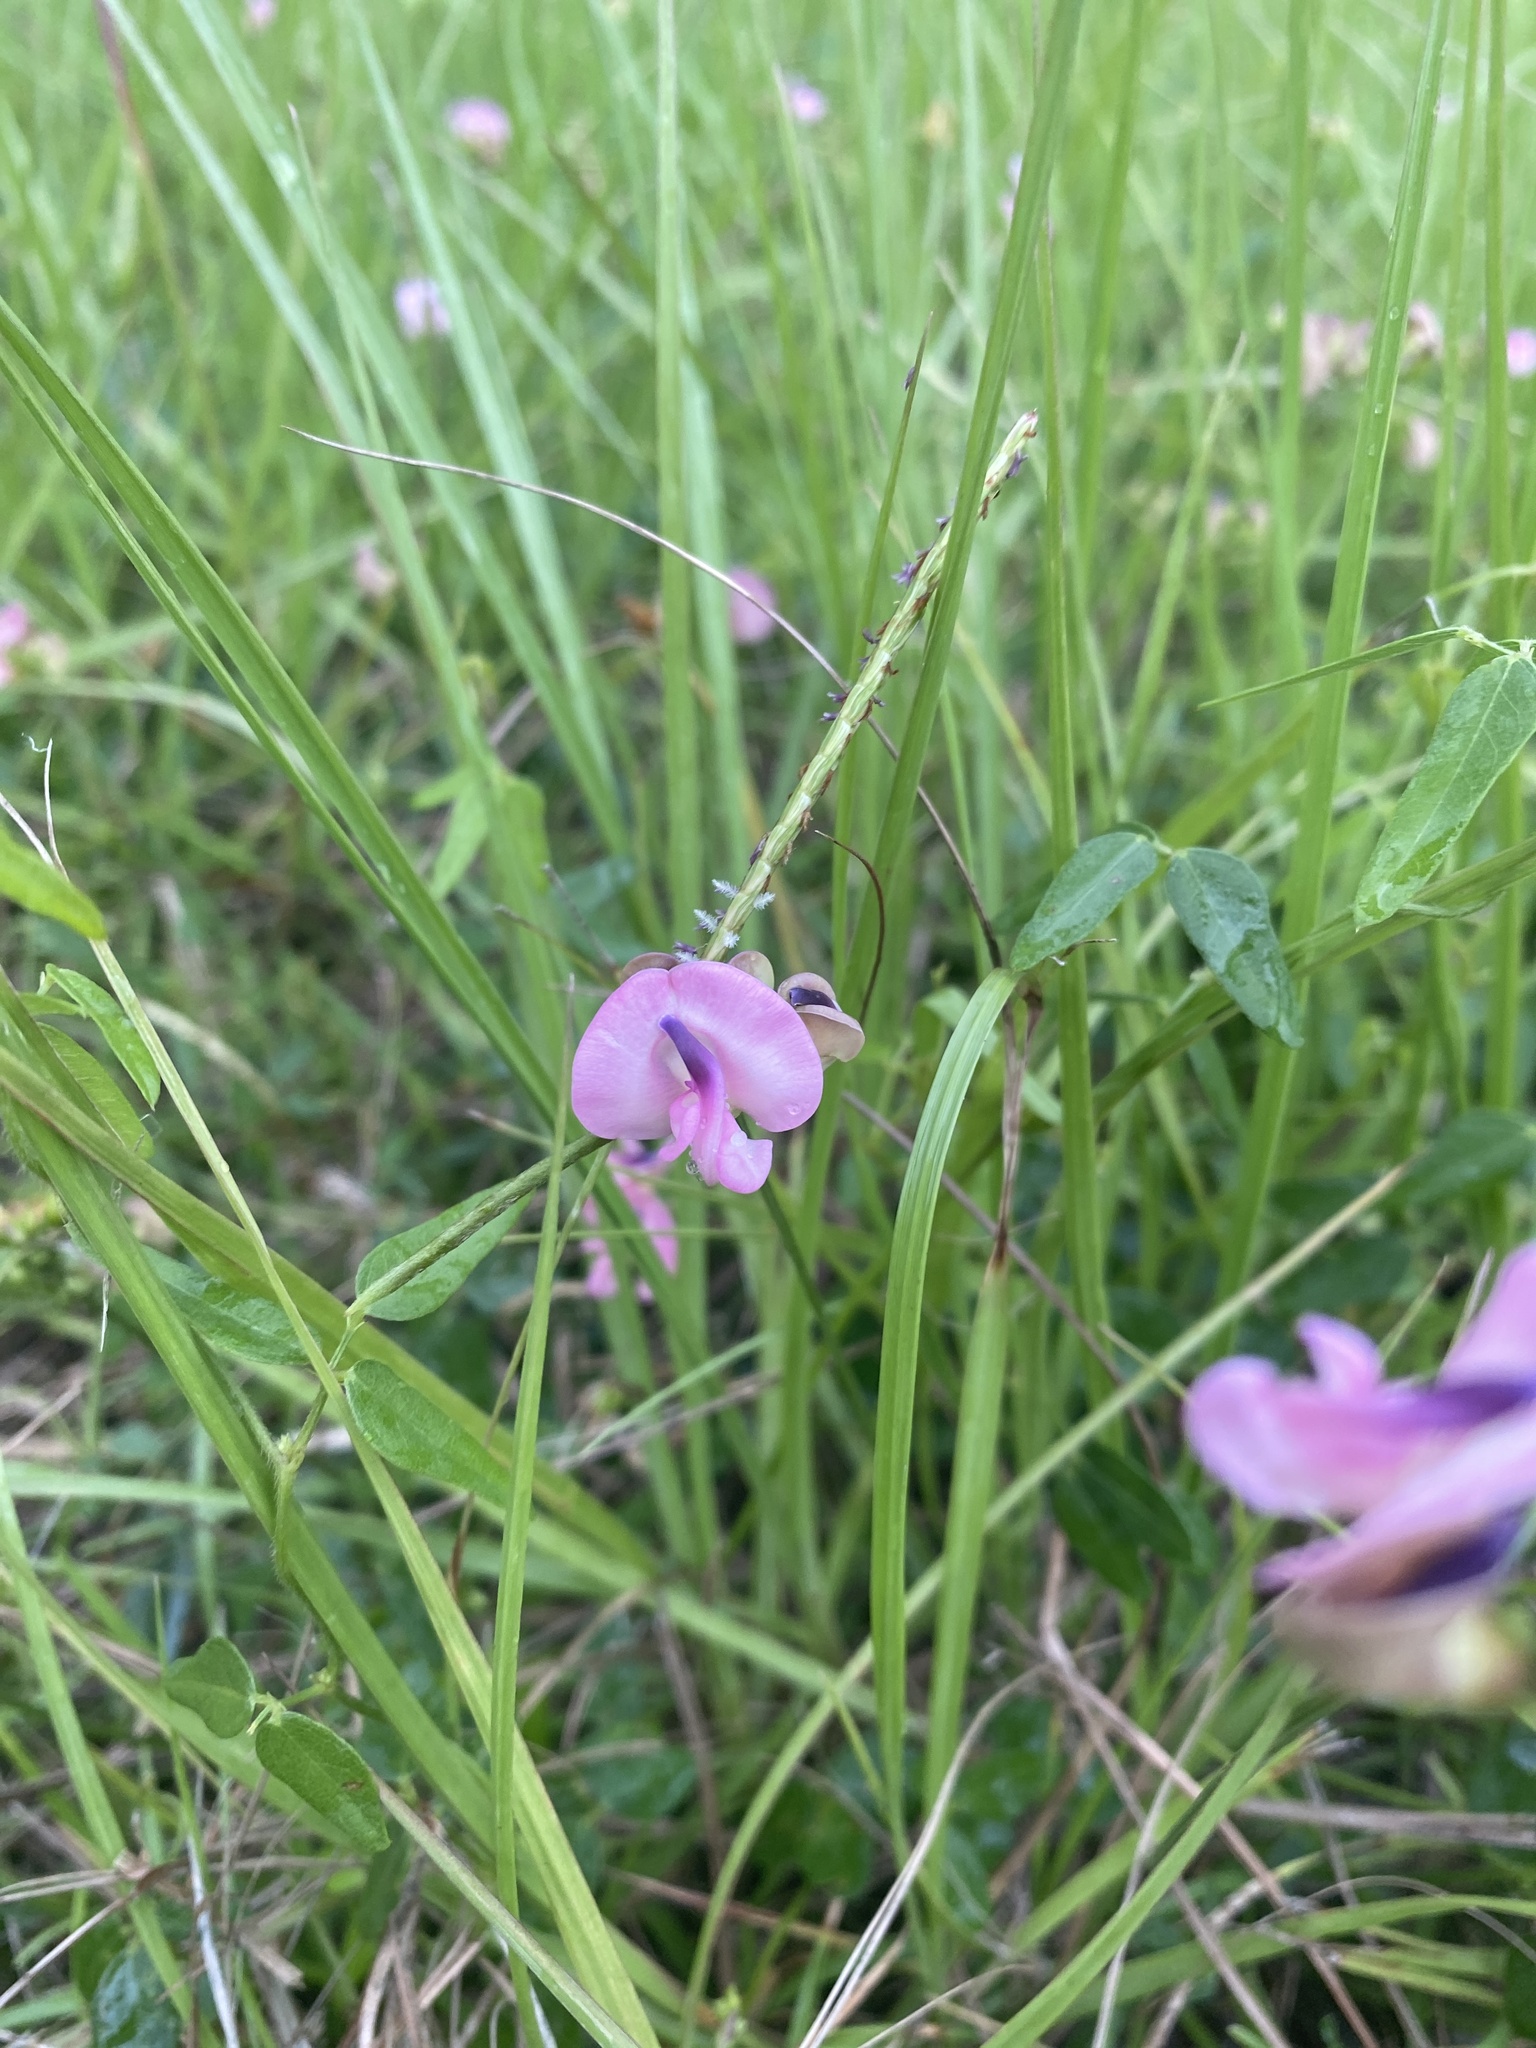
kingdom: Plantae
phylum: Tracheophyta
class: Magnoliopsida
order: Fabales
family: Fabaceae
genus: Strophostyles
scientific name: Strophostyles umbellata
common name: Perennial wild bean
